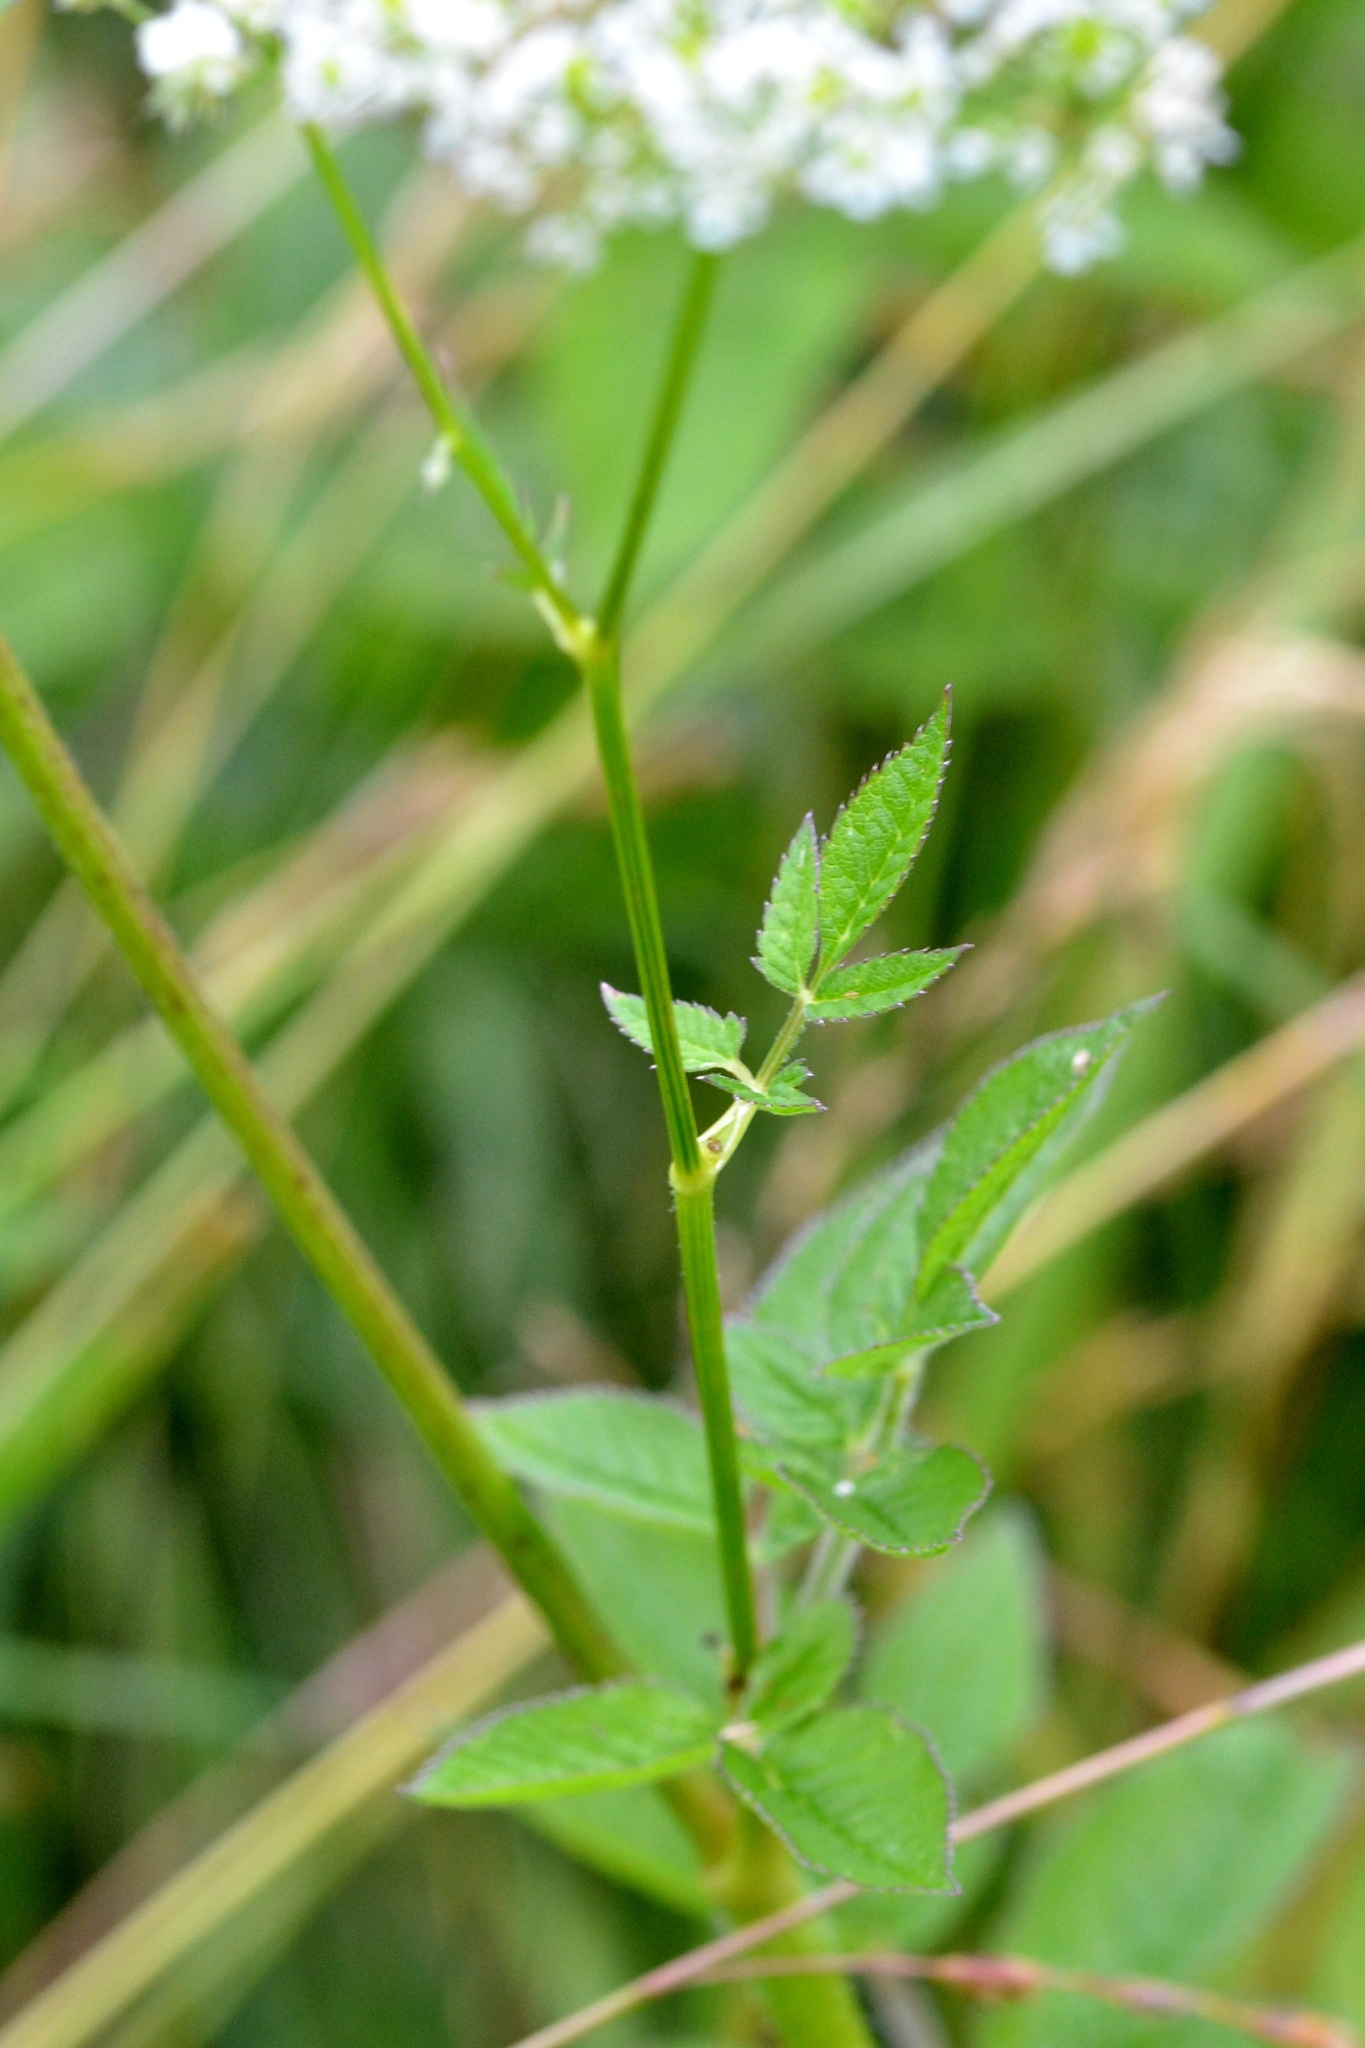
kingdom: Plantae
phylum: Tracheophyta
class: Magnoliopsida
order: Apiales
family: Apiaceae
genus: Chaerophyllum
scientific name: Chaerophyllum aromaticum
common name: Broadleaf chervil
